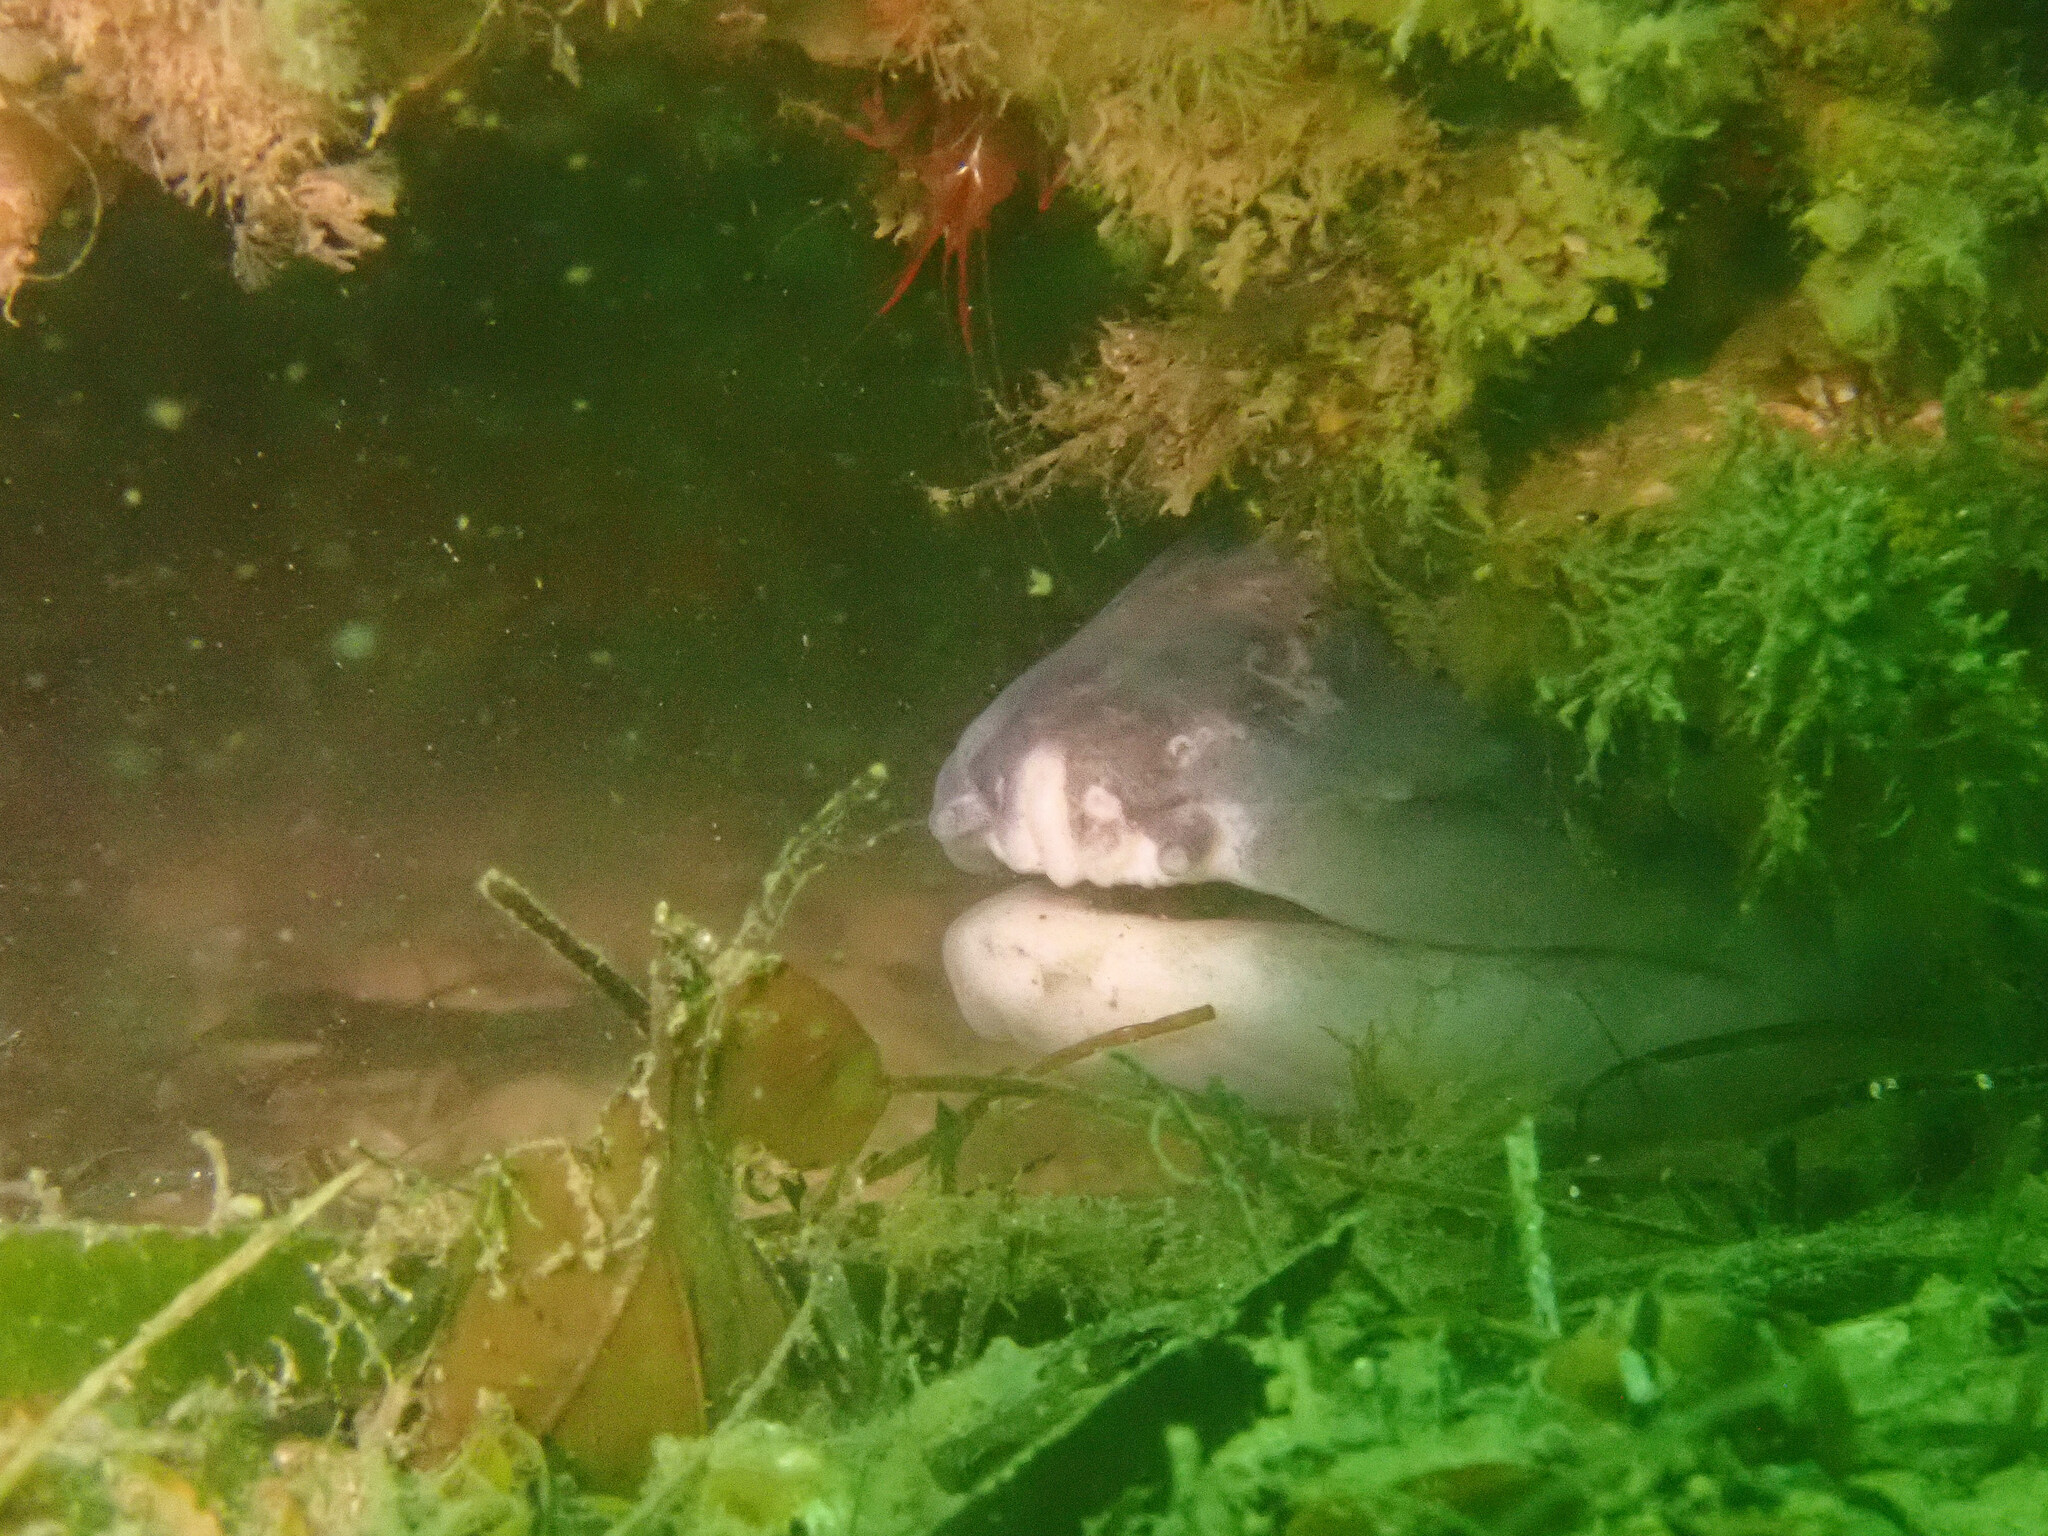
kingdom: Animalia
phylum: Chordata
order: Anguilliformes
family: Congridae
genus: Conger
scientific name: Conger conger
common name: Conger eel
